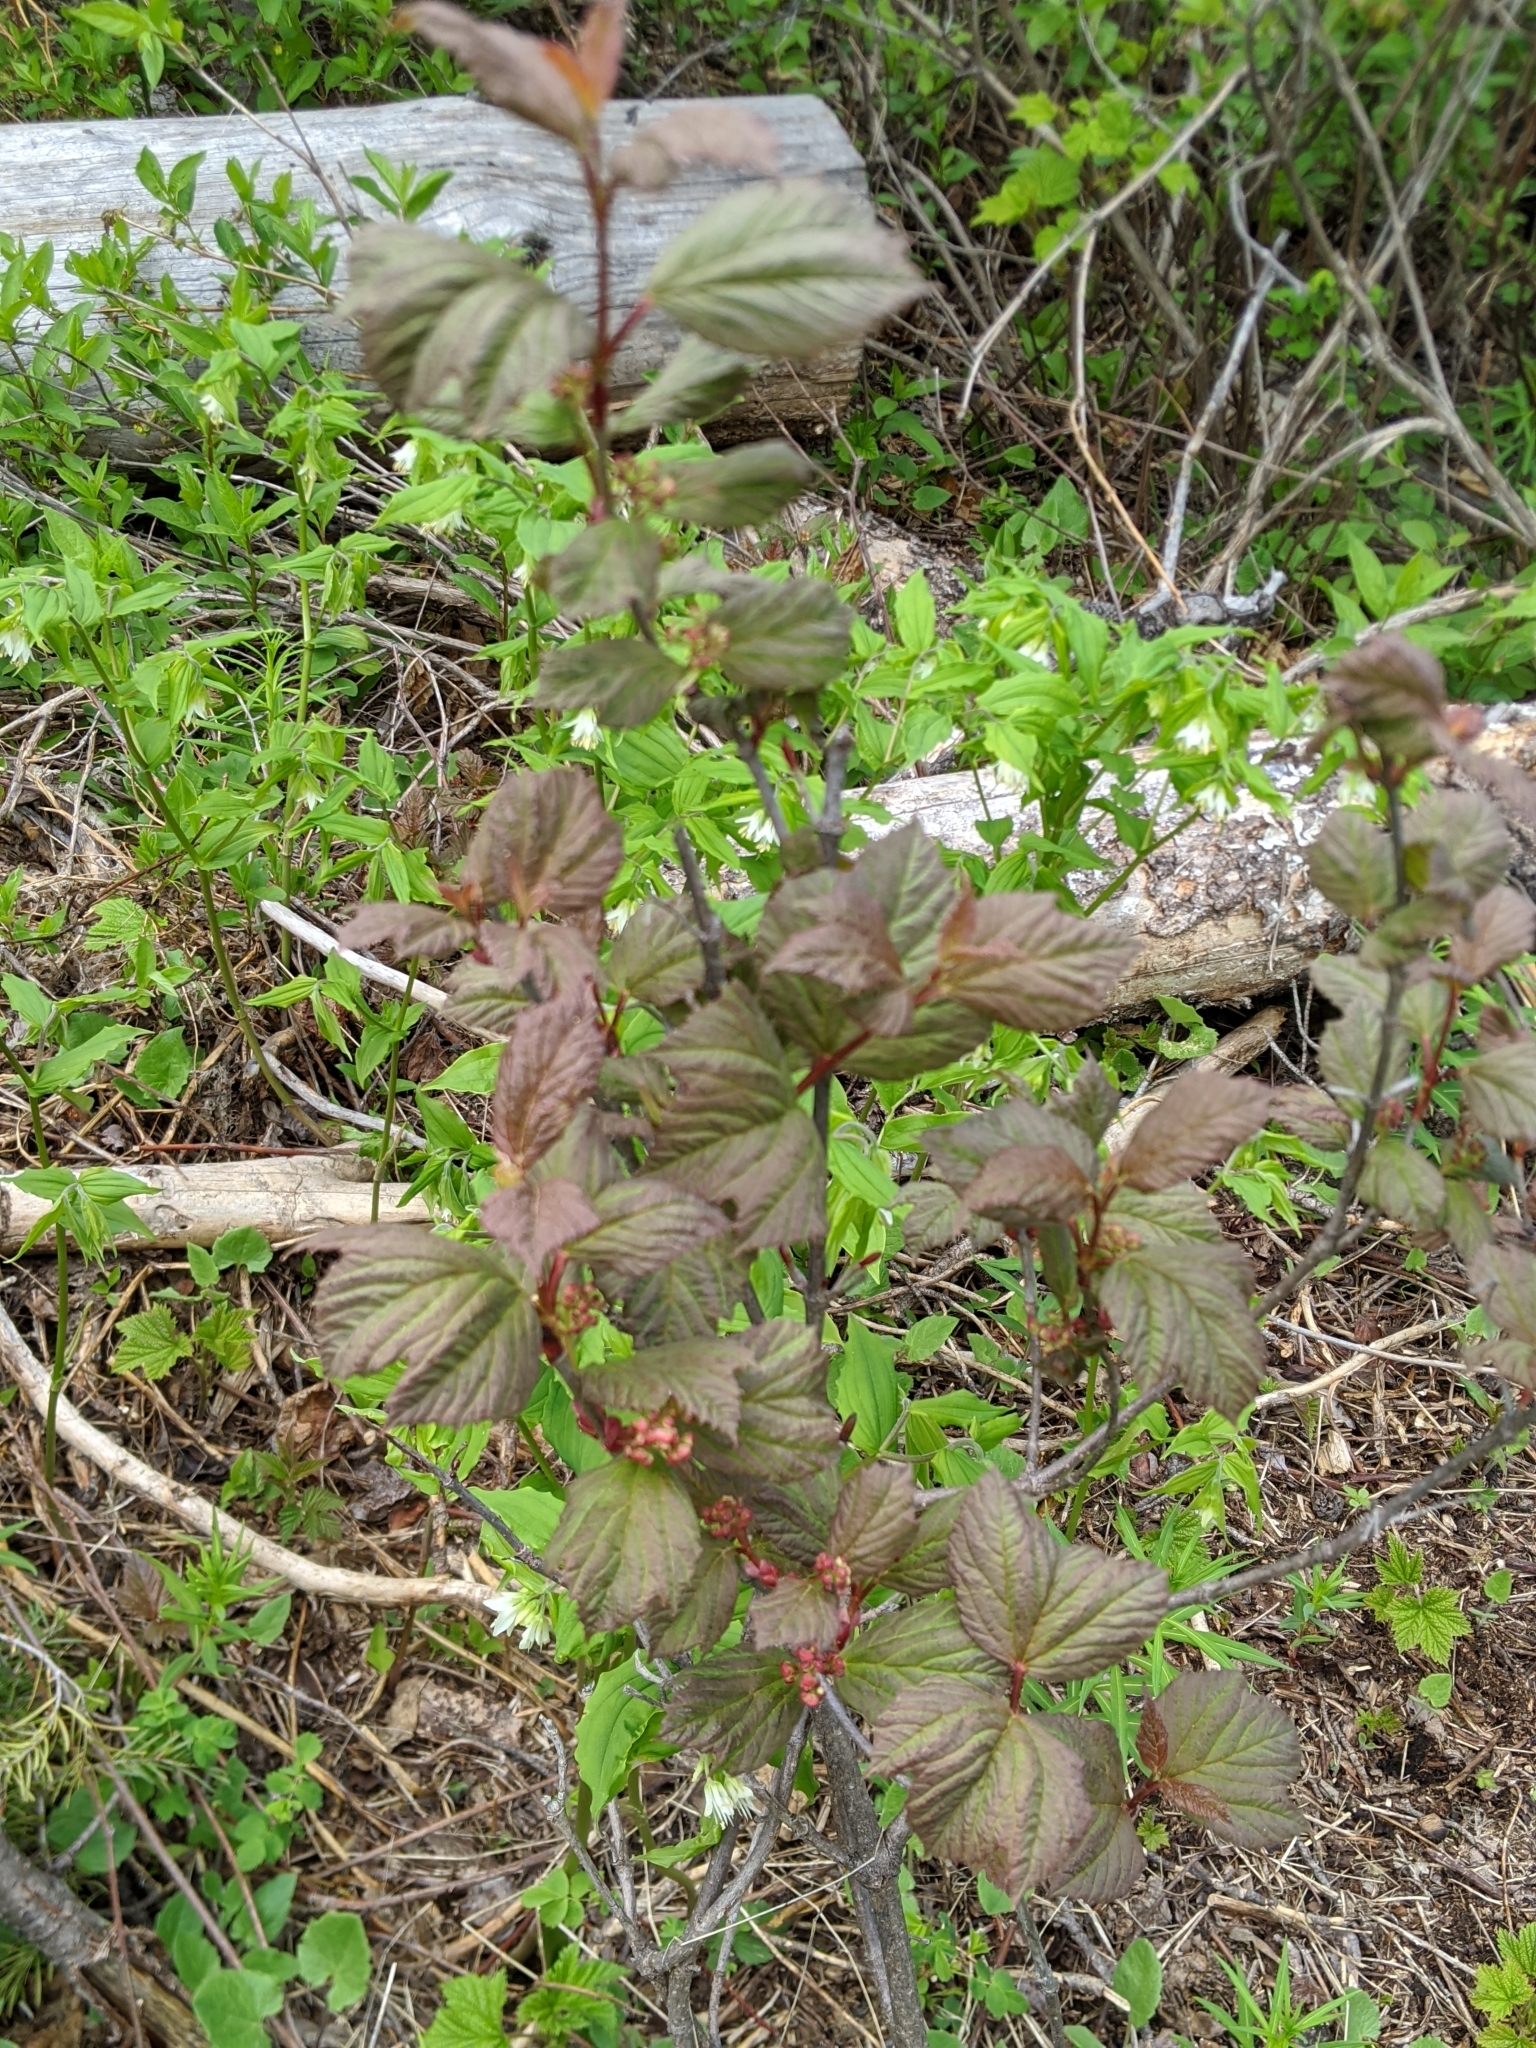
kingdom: Plantae
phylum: Tracheophyta
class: Magnoliopsida
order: Dipsacales
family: Viburnaceae
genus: Viburnum
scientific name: Viburnum edule
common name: Mooseberry
